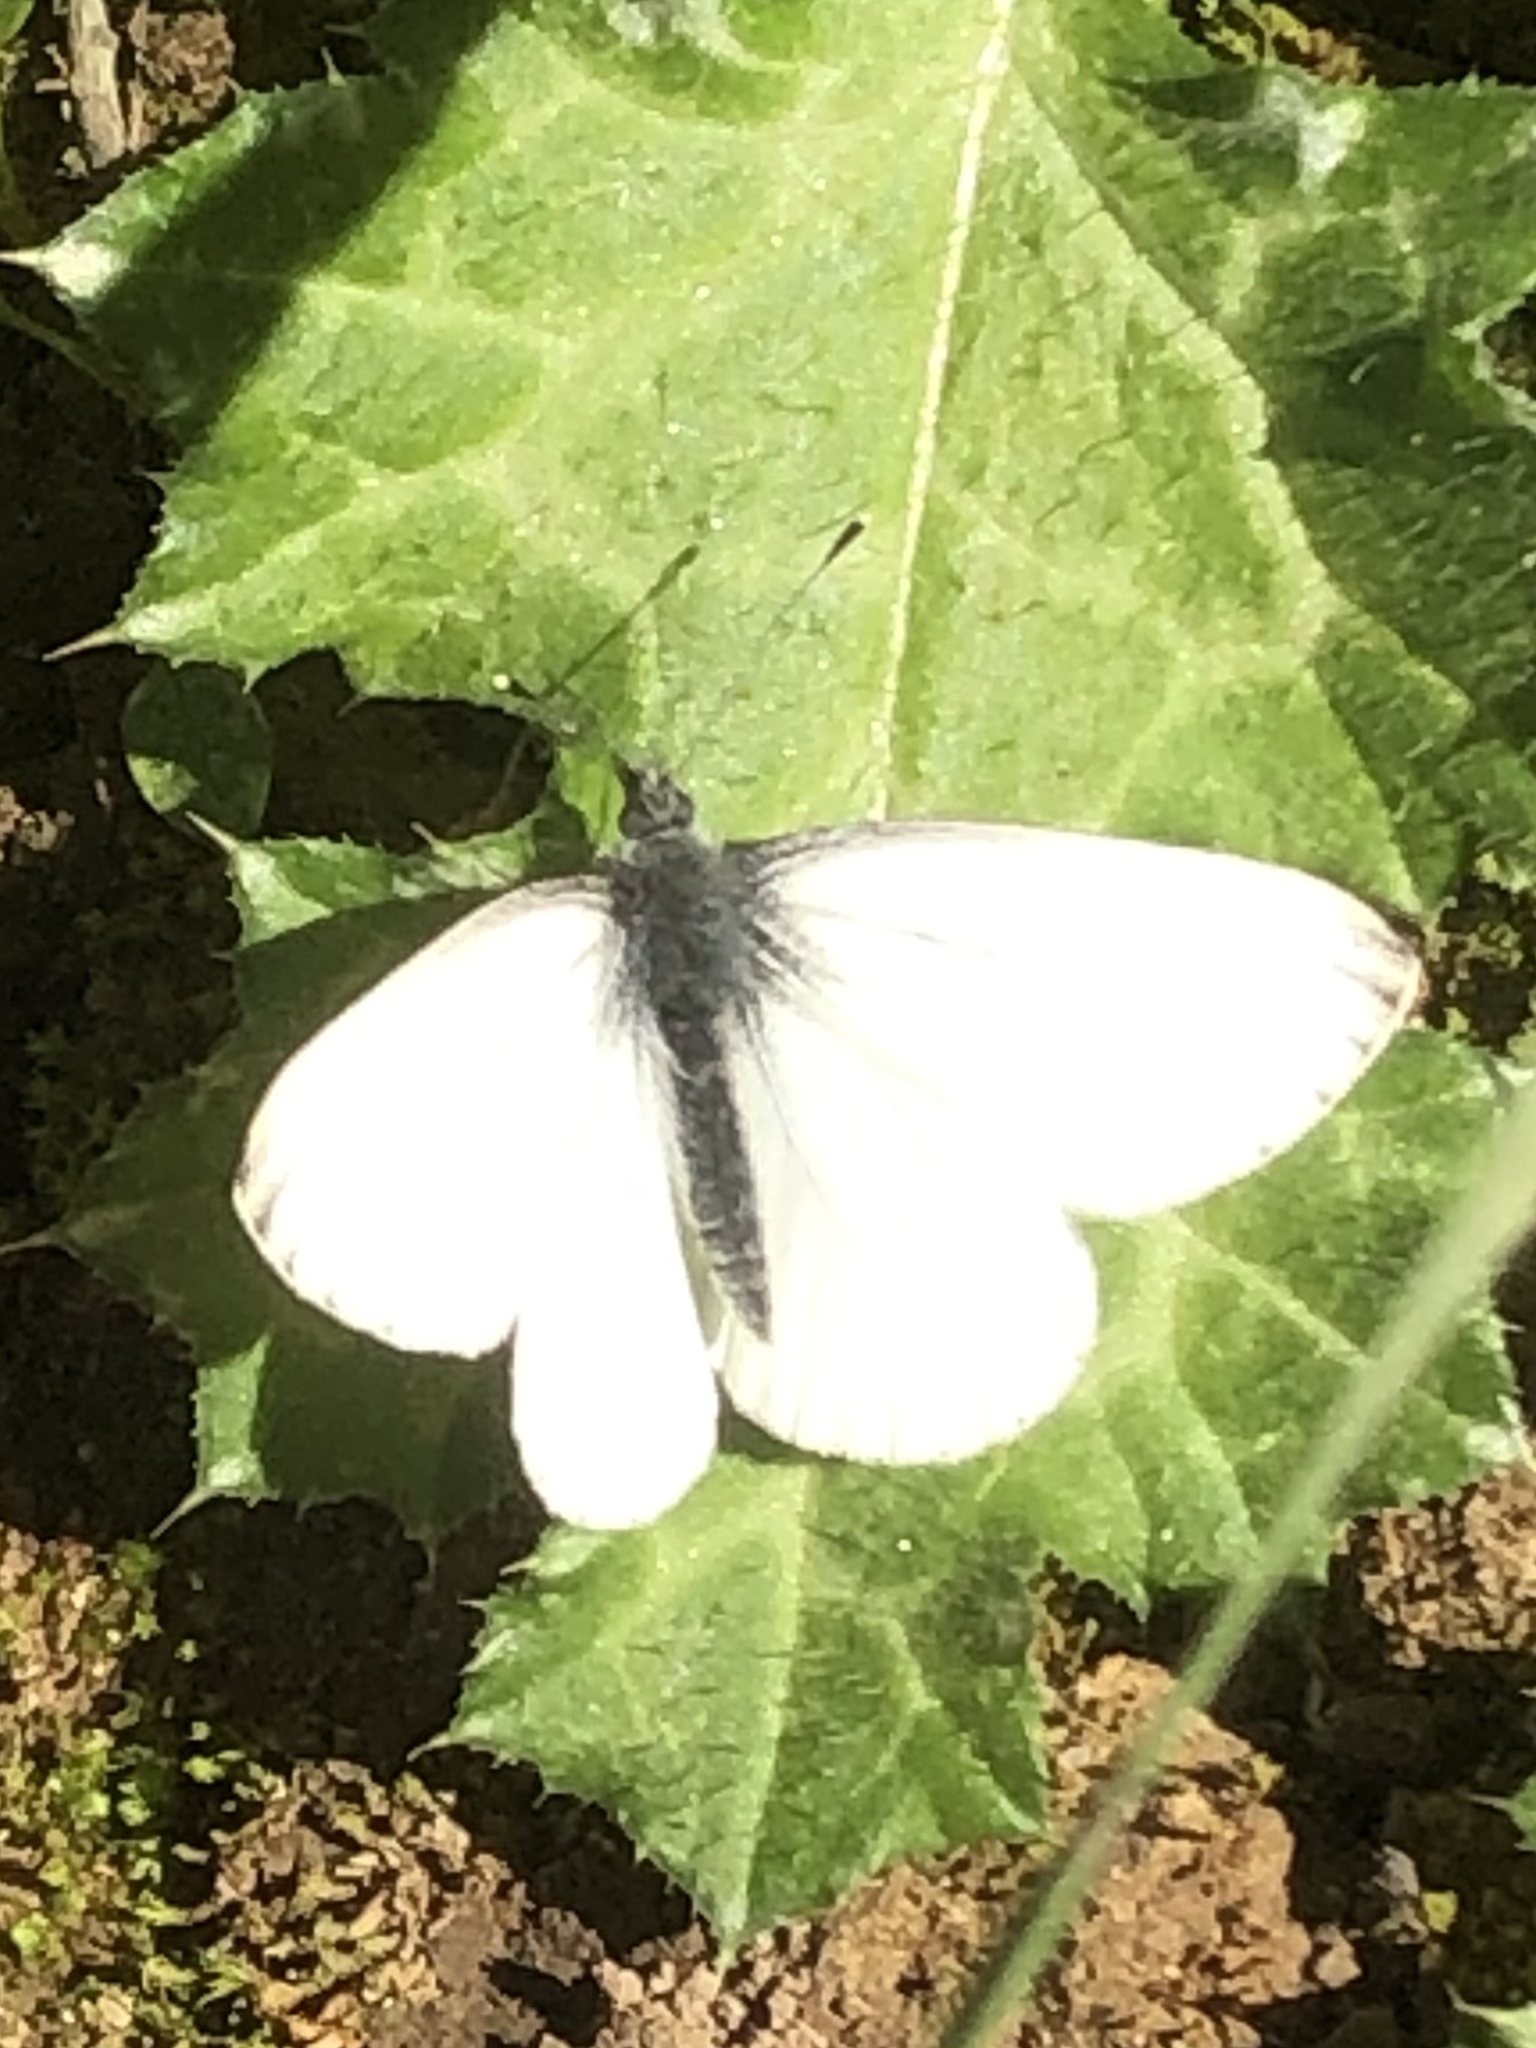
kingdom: Animalia
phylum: Arthropoda
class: Insecta
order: Lepidoptera
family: Pieridae
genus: Pieris
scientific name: Pieris marginalis
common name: Margined white
